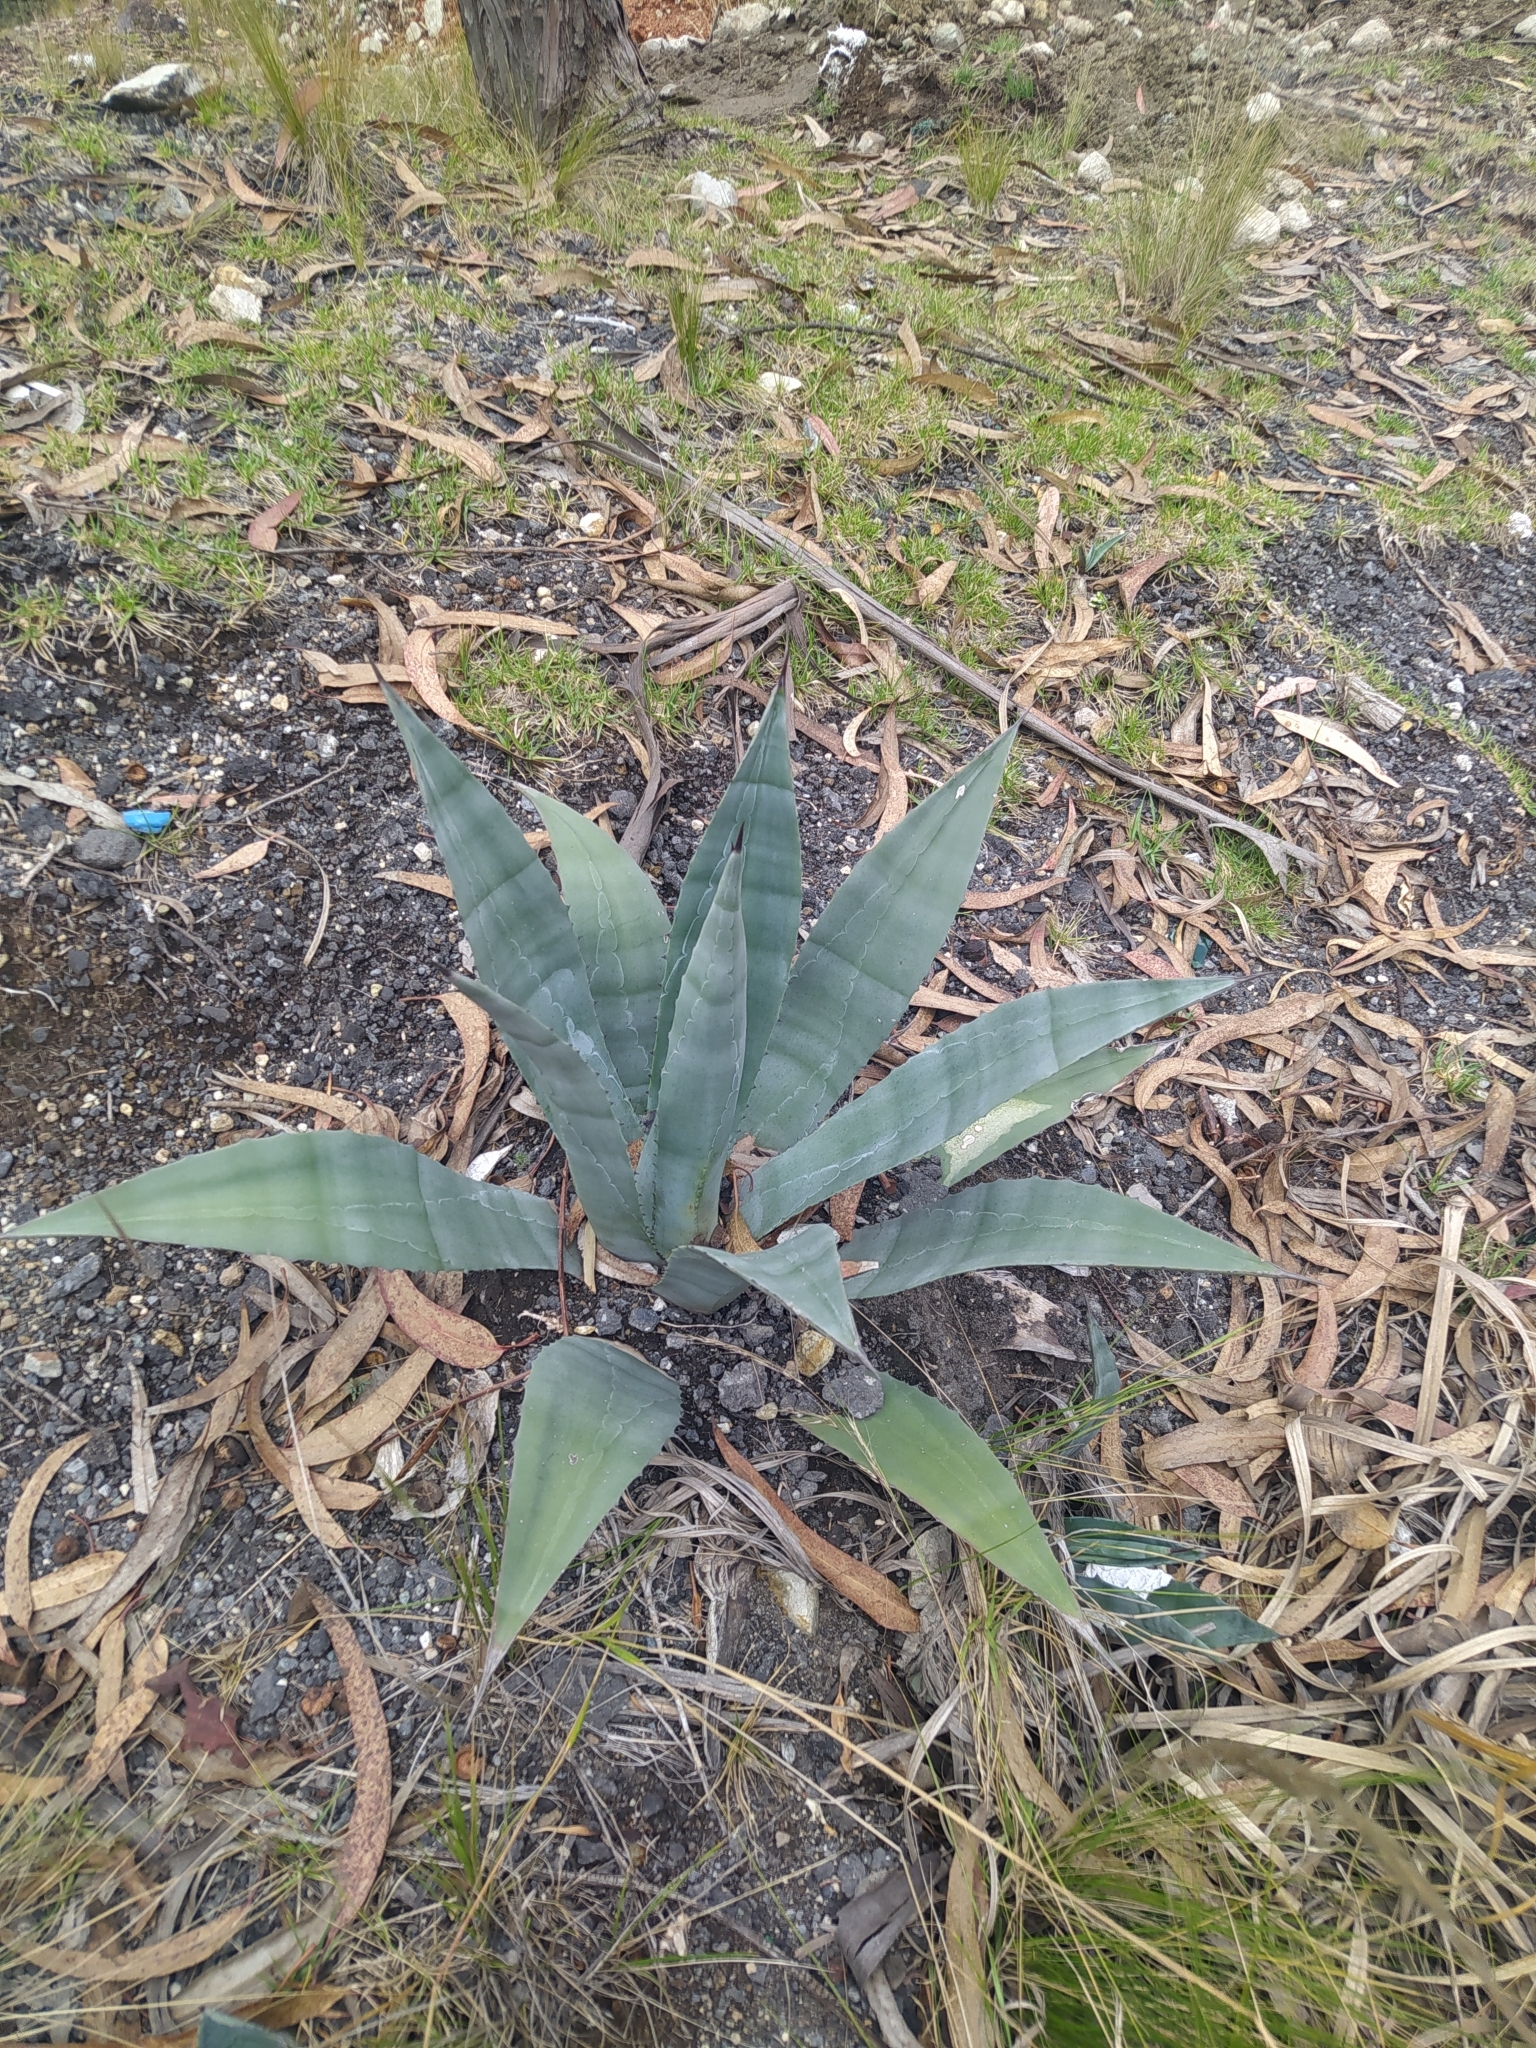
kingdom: Plantae
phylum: Tracheophyta
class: Liliopsida
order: Asparagales
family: Asparagaceae
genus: Agave
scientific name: Agave americana
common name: Centuryplant
